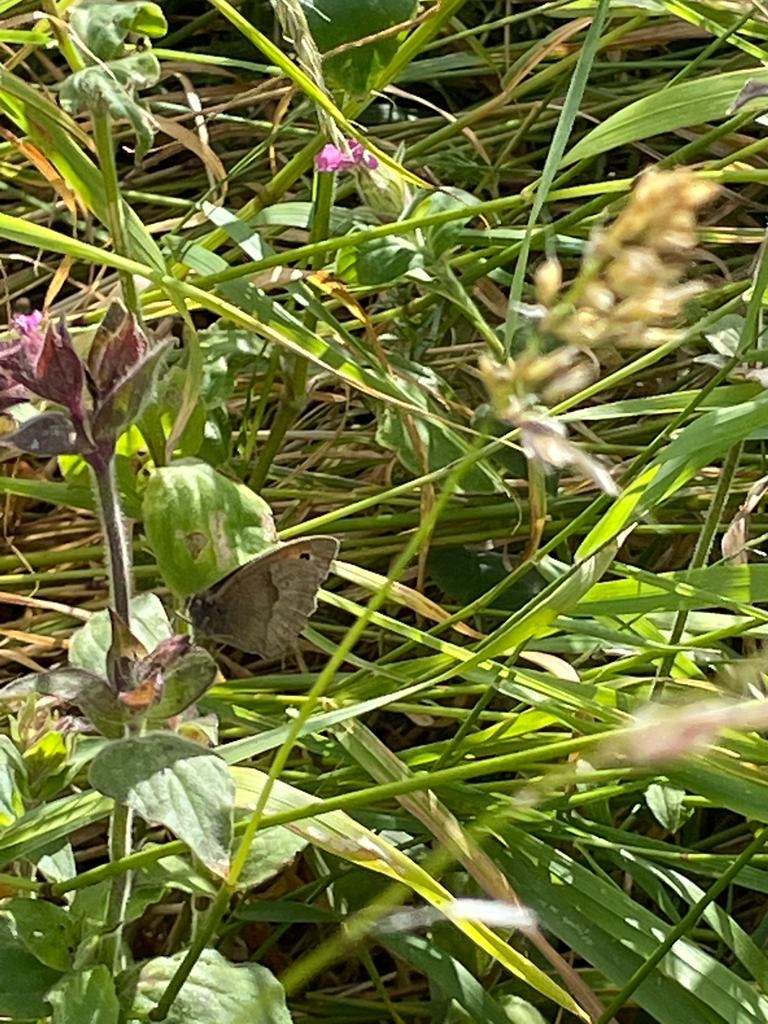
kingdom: Animalia
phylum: Arthropoda
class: Insecta
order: Lepidoptera
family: Nymphalidae
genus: Maniola
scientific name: Maniola jurtina
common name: Meadow brown
